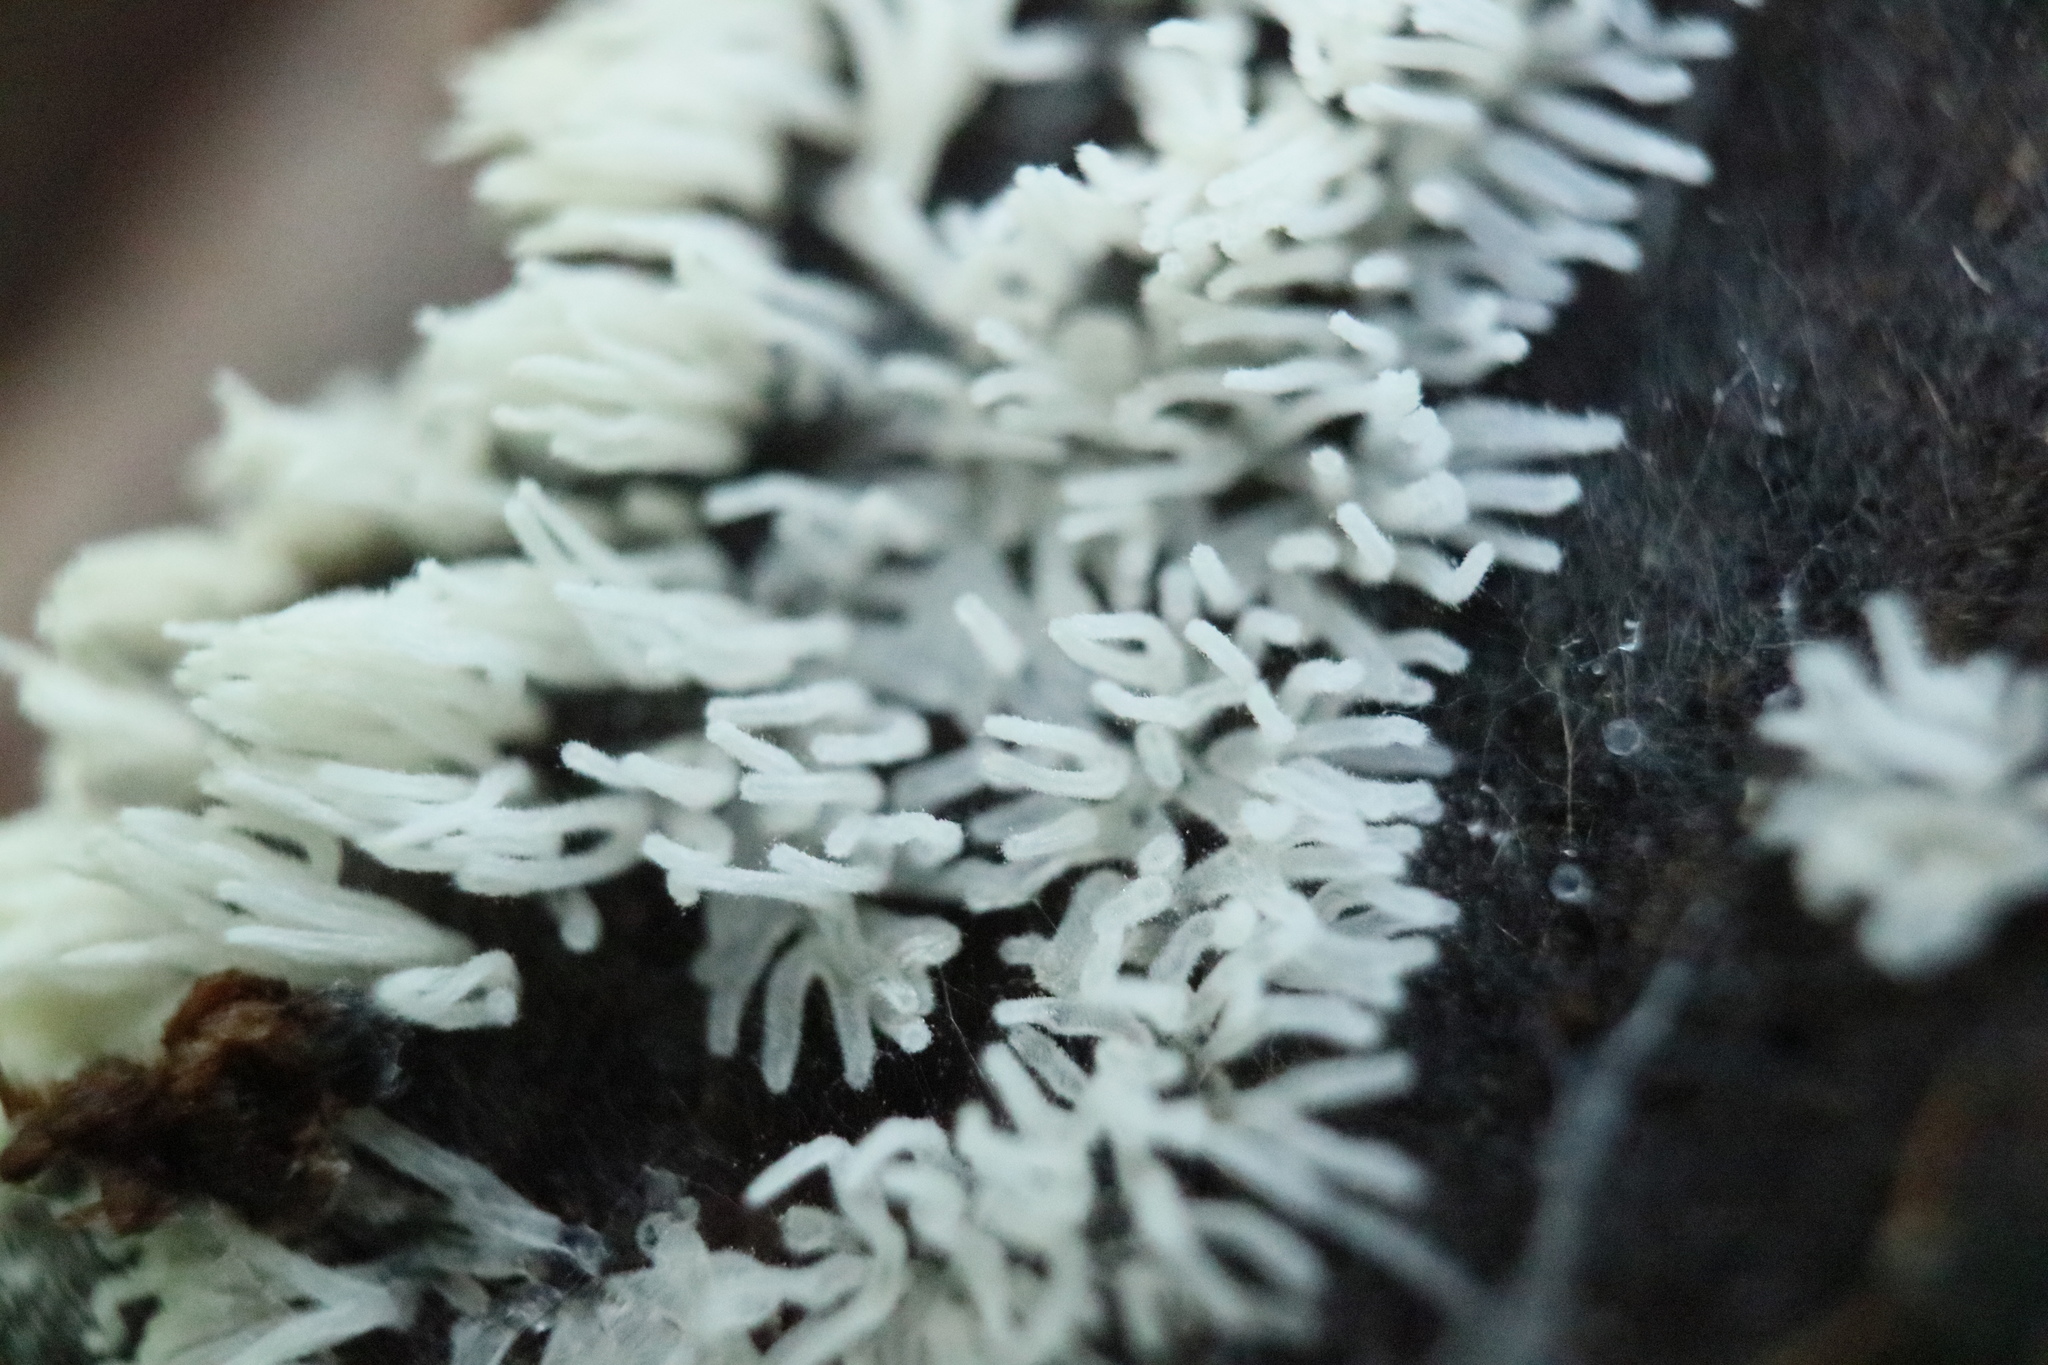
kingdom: Protozoa
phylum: Mycetozoa
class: Protosteliomycetes
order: Ceratiomyxales
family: Ceratiomyxaceae
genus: Ceratiomyxa
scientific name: Ceratiomyxa fruticulosa
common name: Honeycomb coral slime mold
